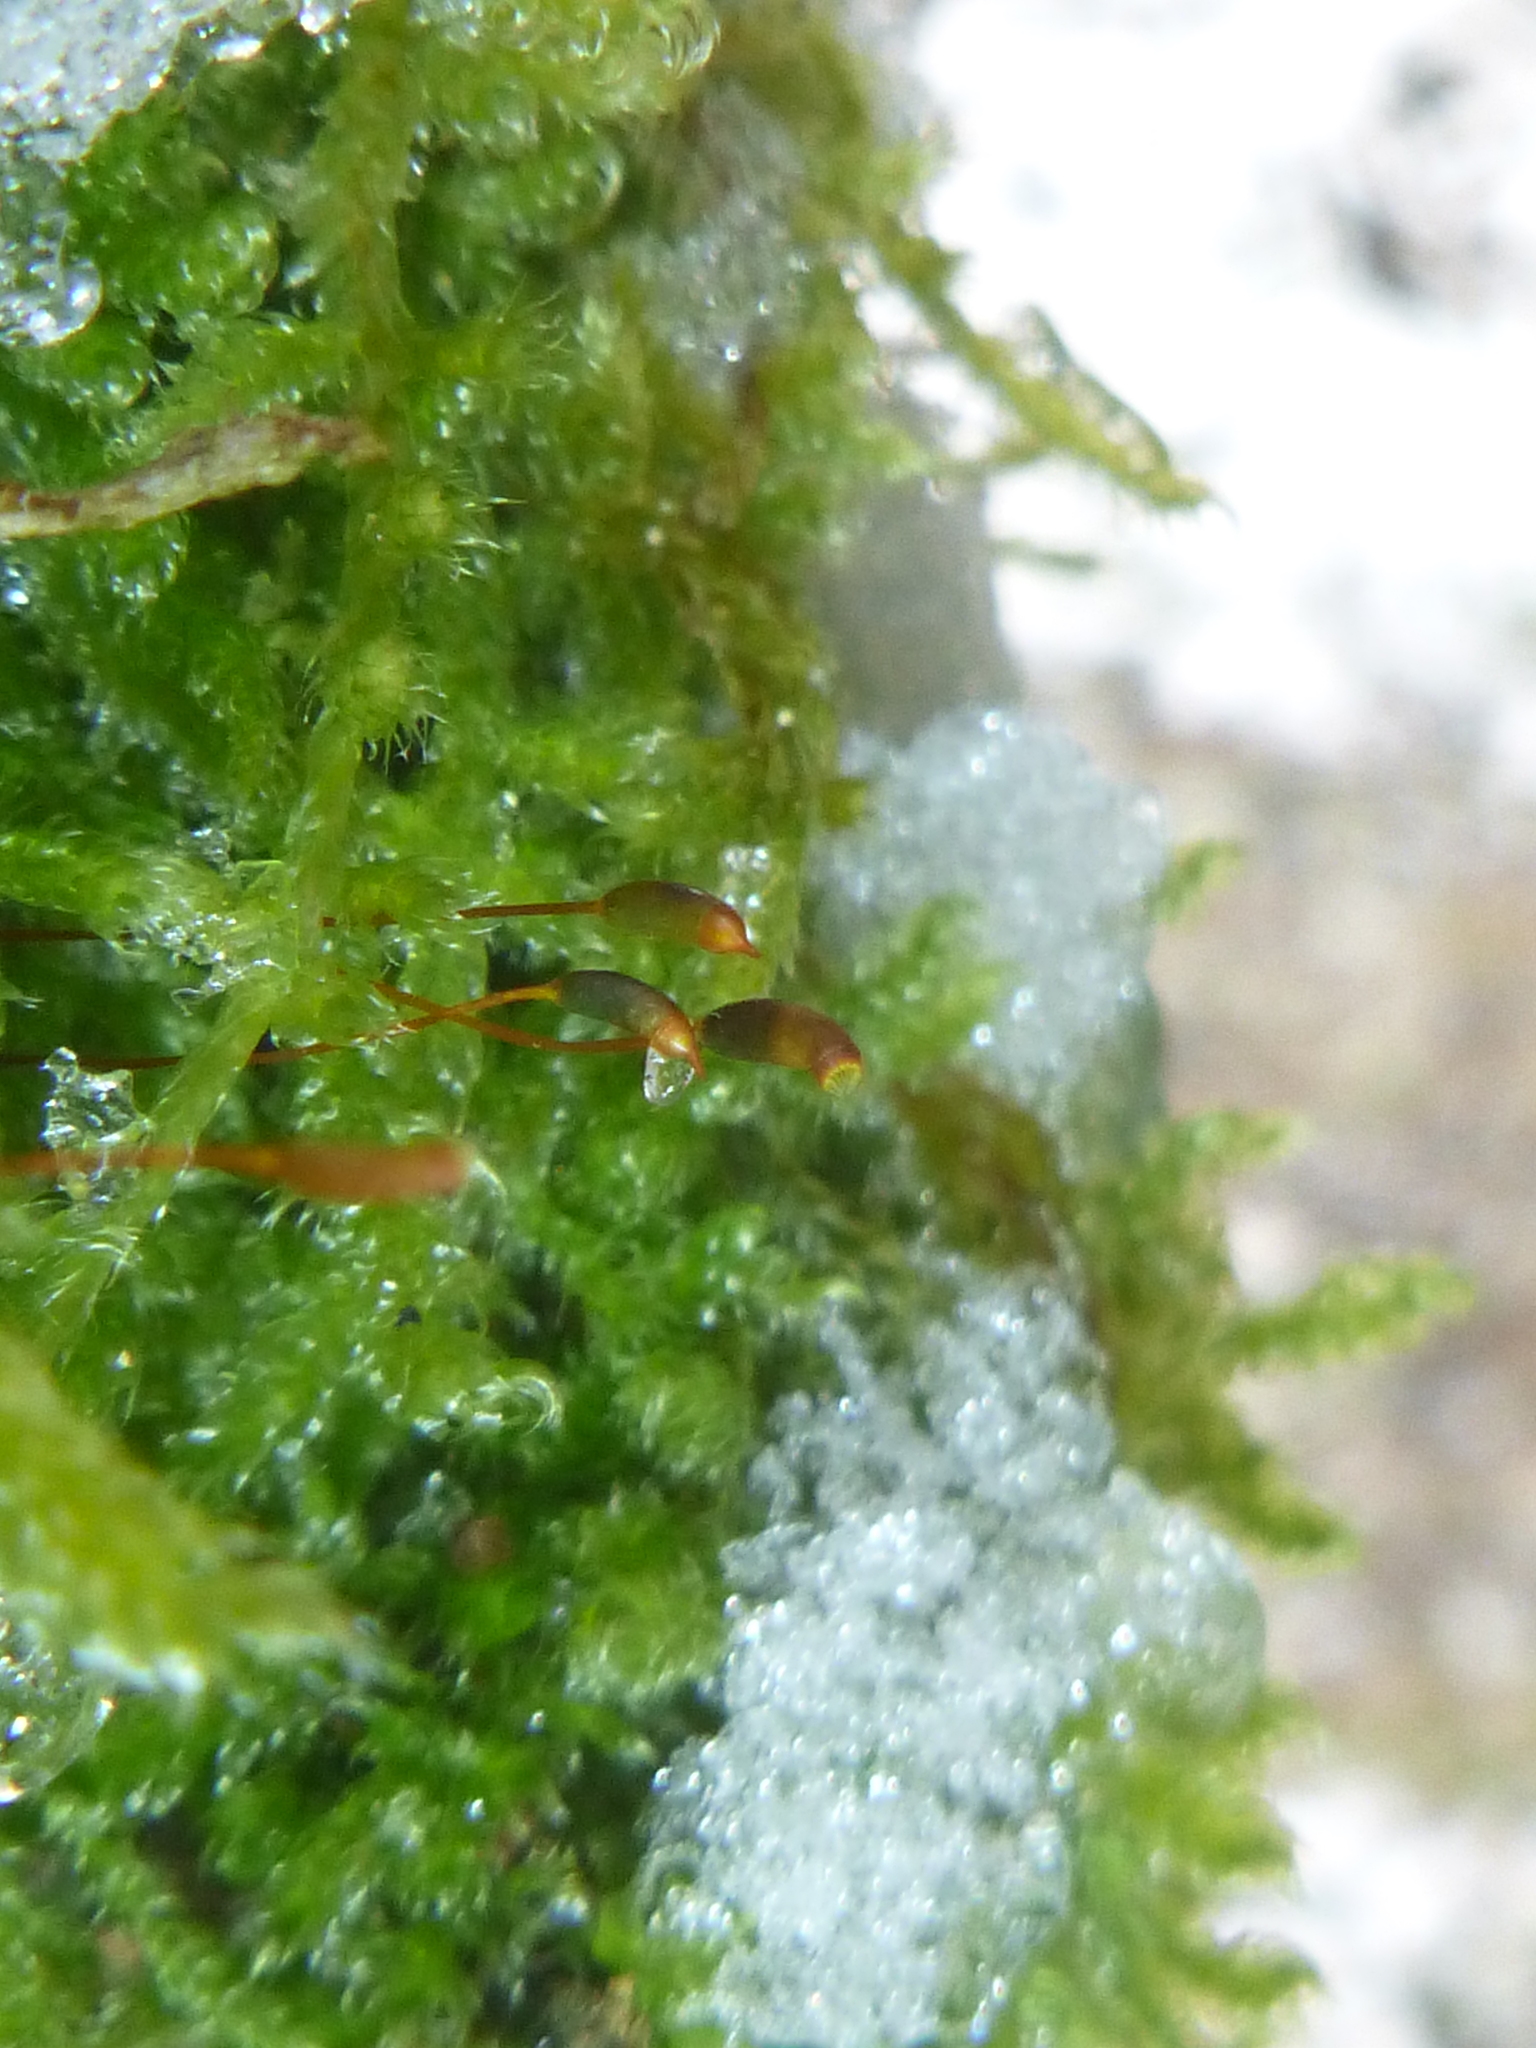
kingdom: Plantae
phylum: Bryophyta
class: Bryopsida
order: Hypnales
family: Hypnaceae
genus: Hypnum
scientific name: Hypnum cupressiforme
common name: Cypress-leaved plait-moss
